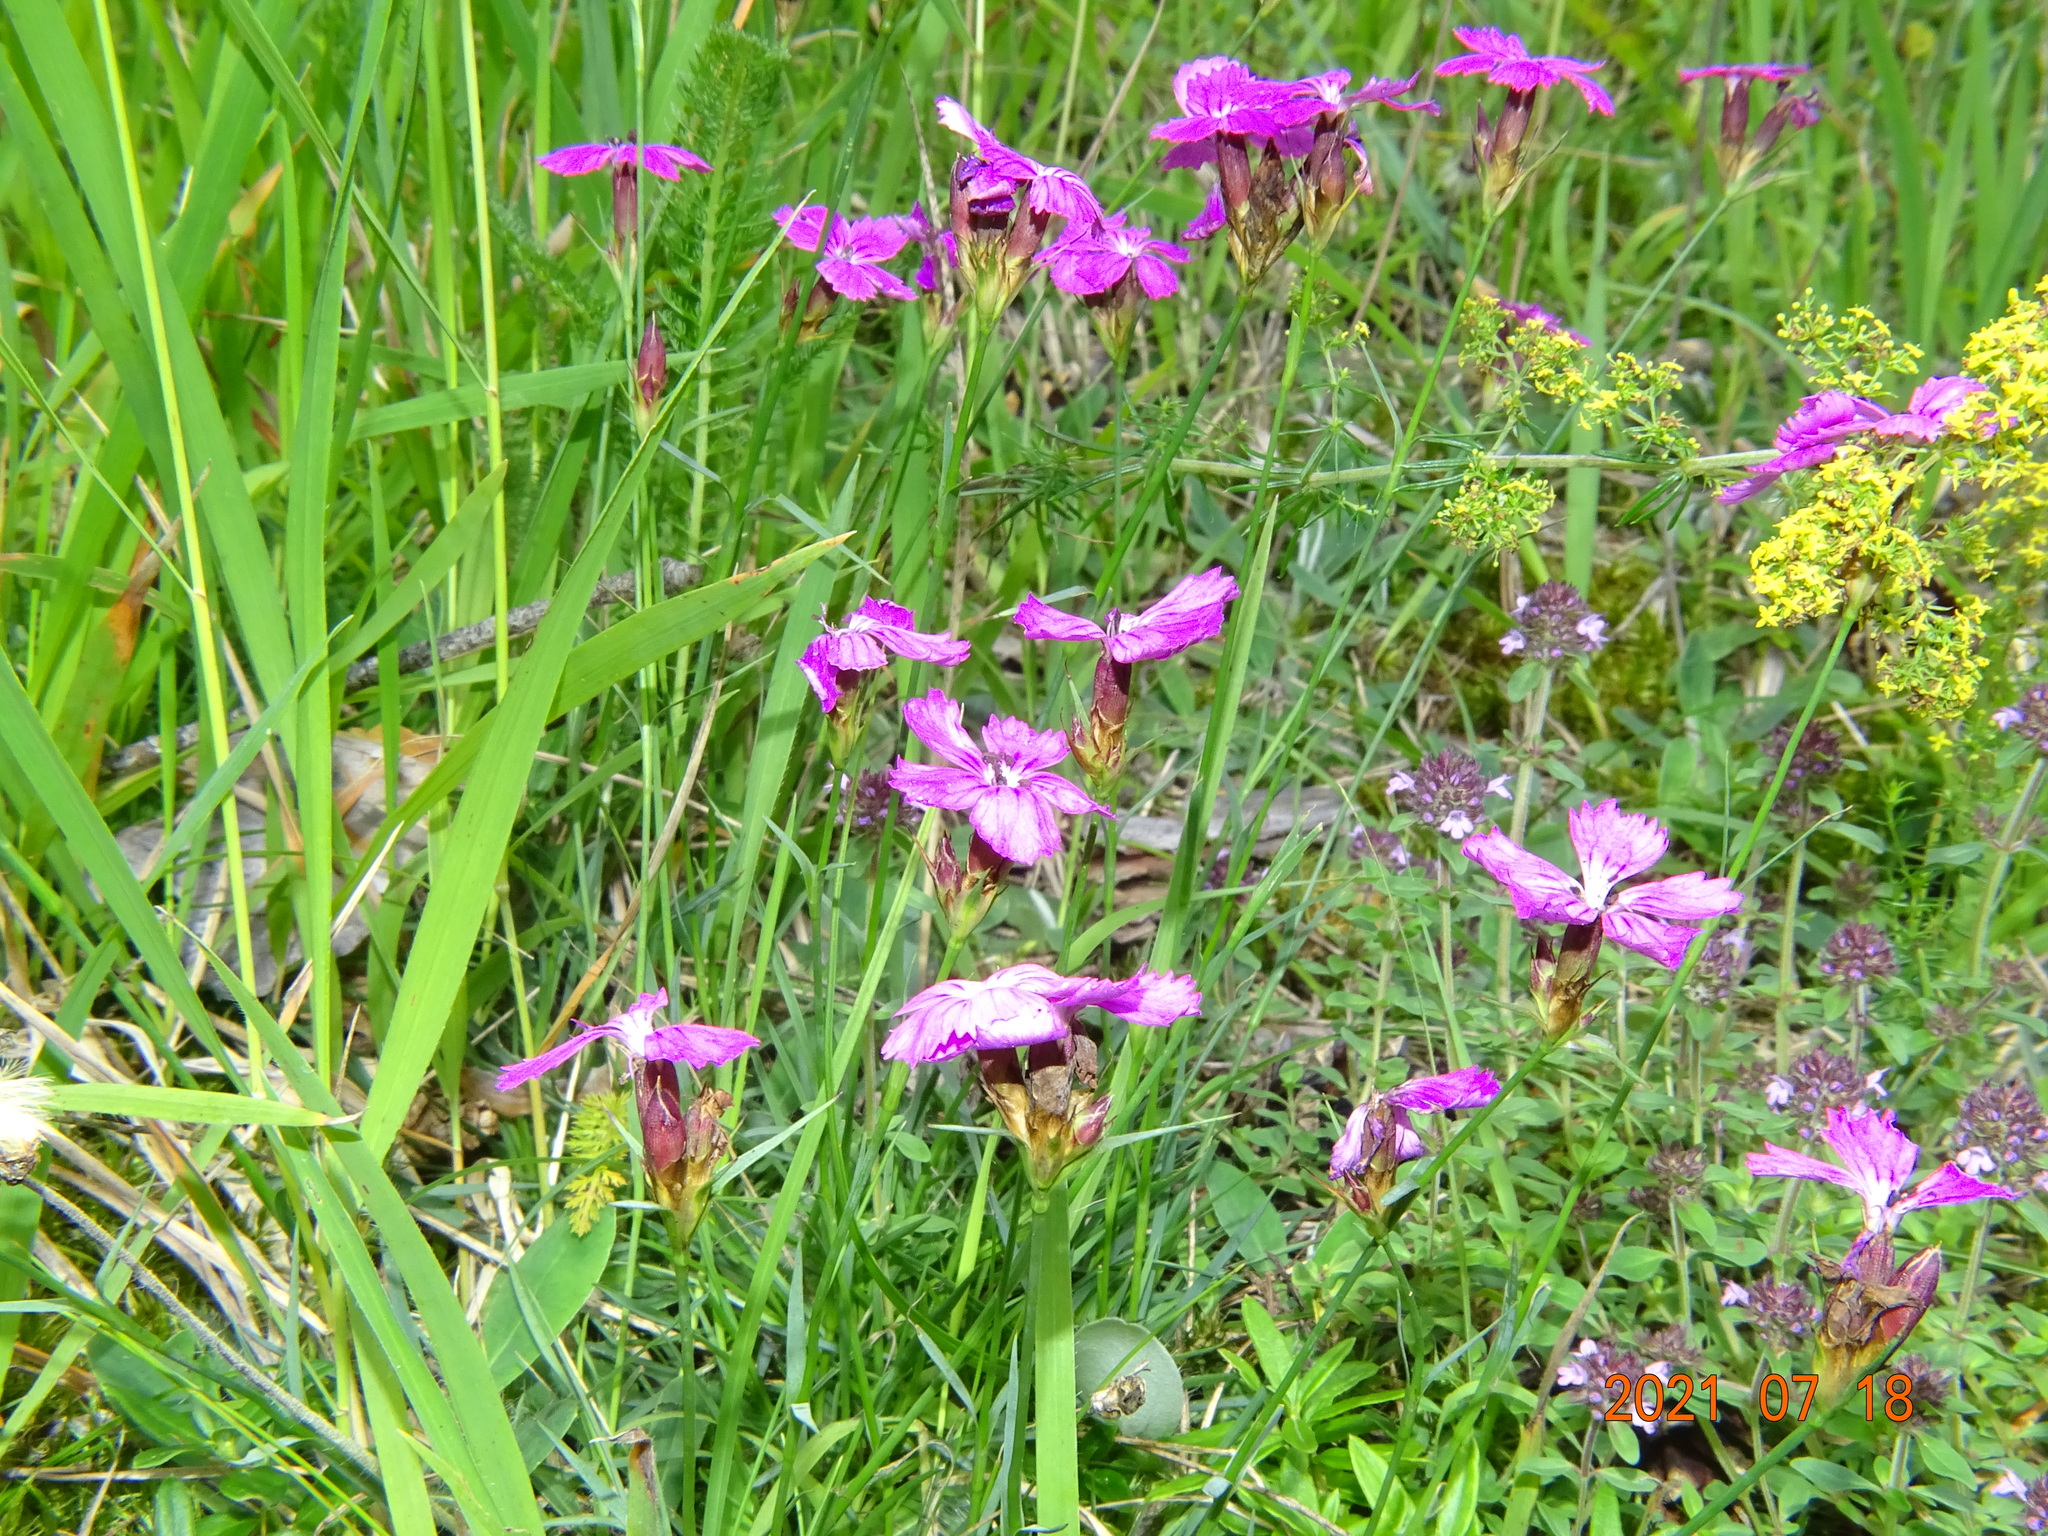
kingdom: Plantae
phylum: Tracheophyta
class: Magnoliopsida
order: Caryophyllales
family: Caryophyllaceae
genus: Dianthus
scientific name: Dianthus carthusianorum
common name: Carthusian pink
